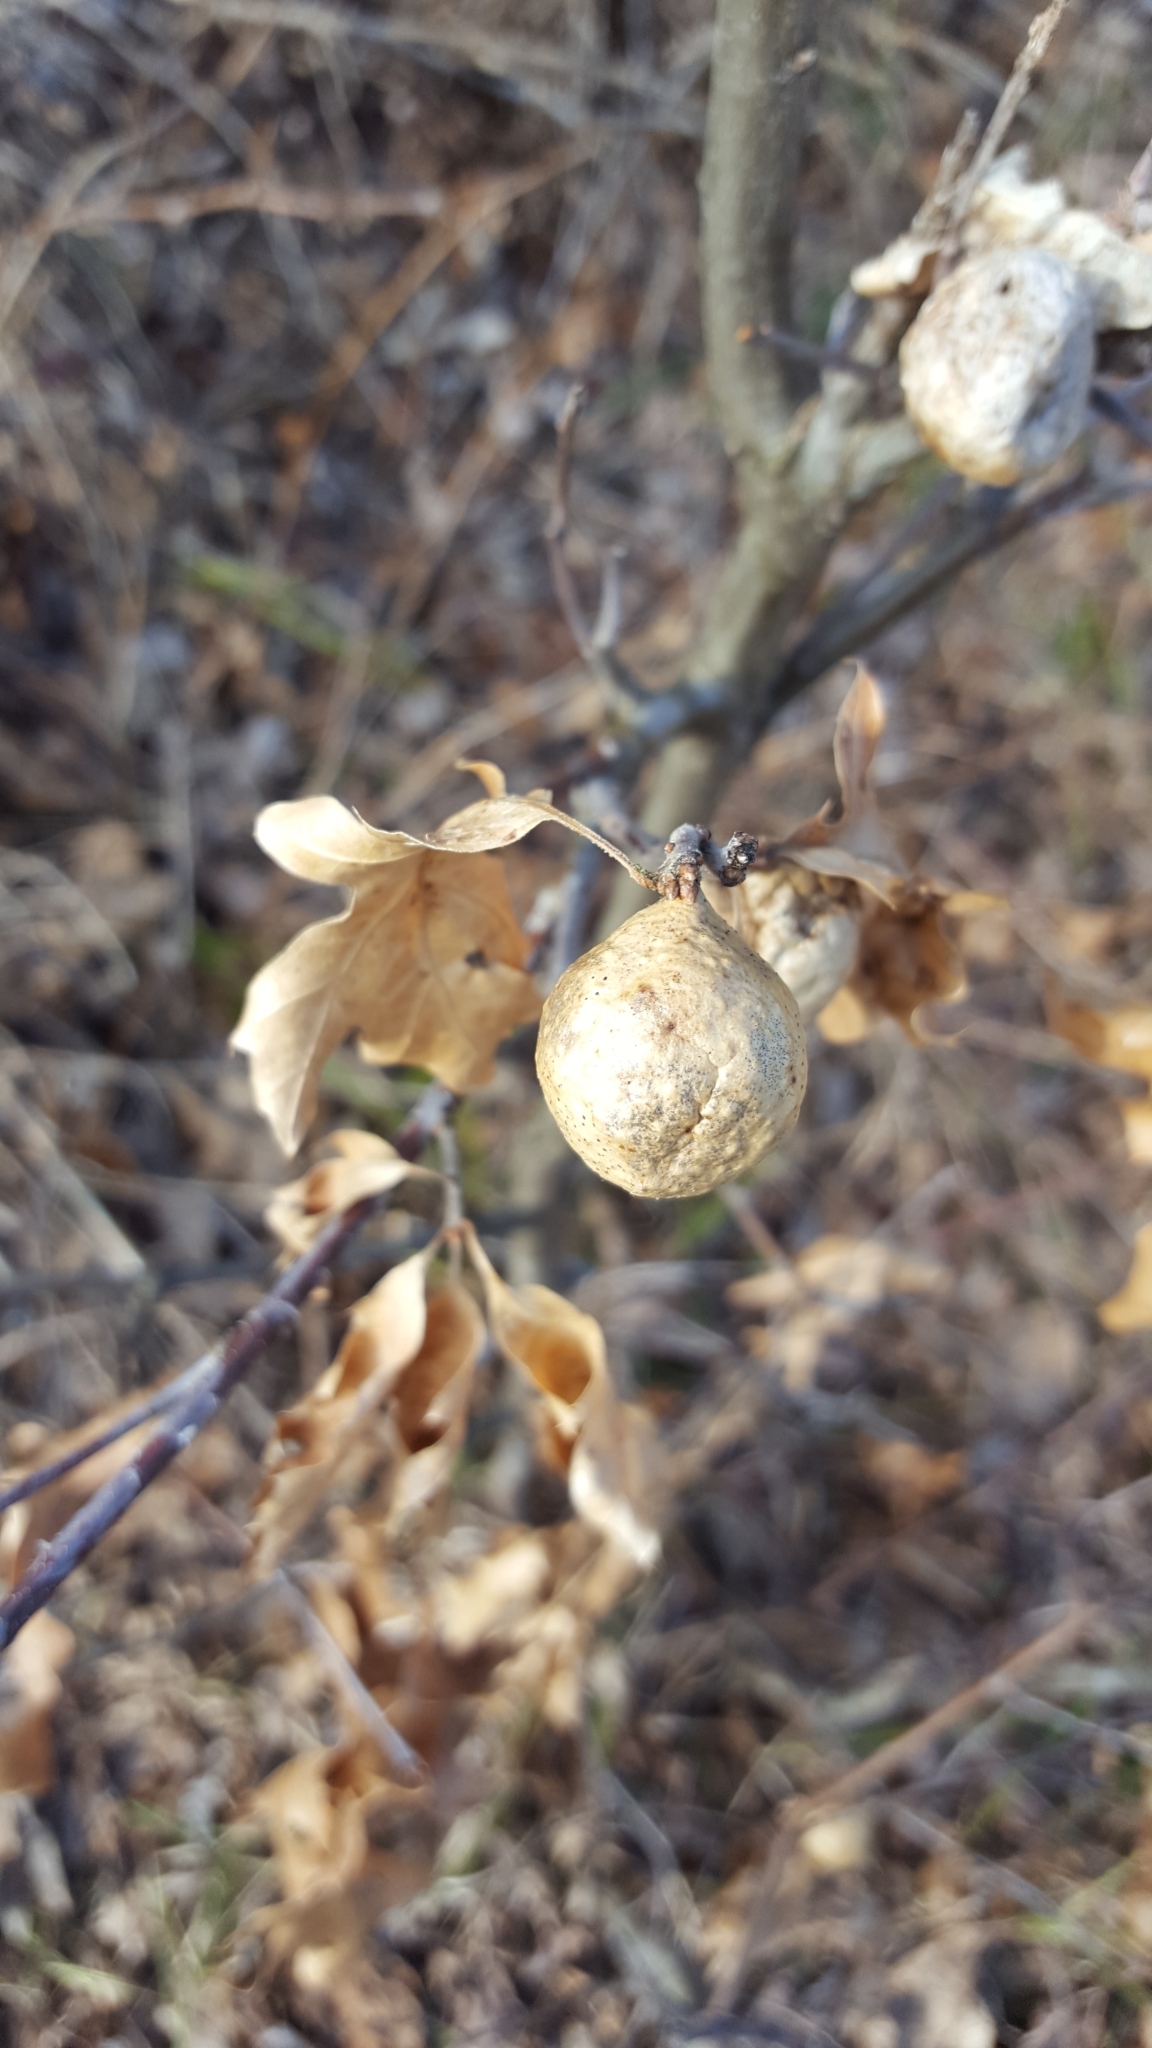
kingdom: Animalia
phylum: Arthropoda
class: Insecta
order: Hymenoptera
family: Cynipidae
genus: Amphibolips
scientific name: Amphibolips
